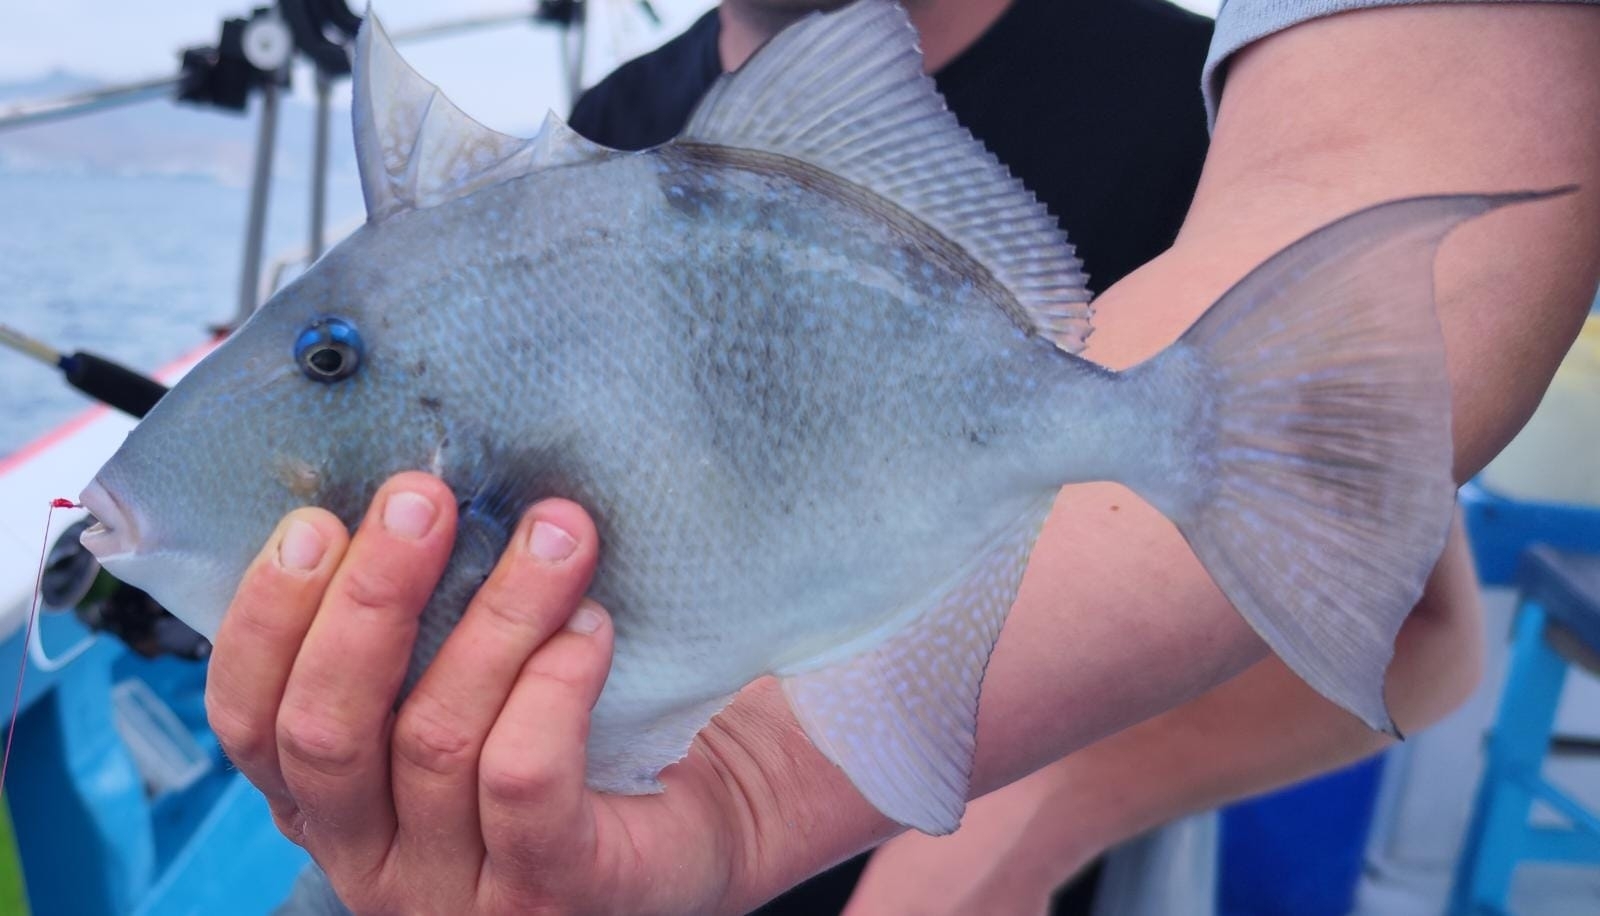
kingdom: Animalia
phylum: Chordata
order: Tetraodontiformes
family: Balistidae
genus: Balistes
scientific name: Balistes capriscus
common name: Grey triggerfish
